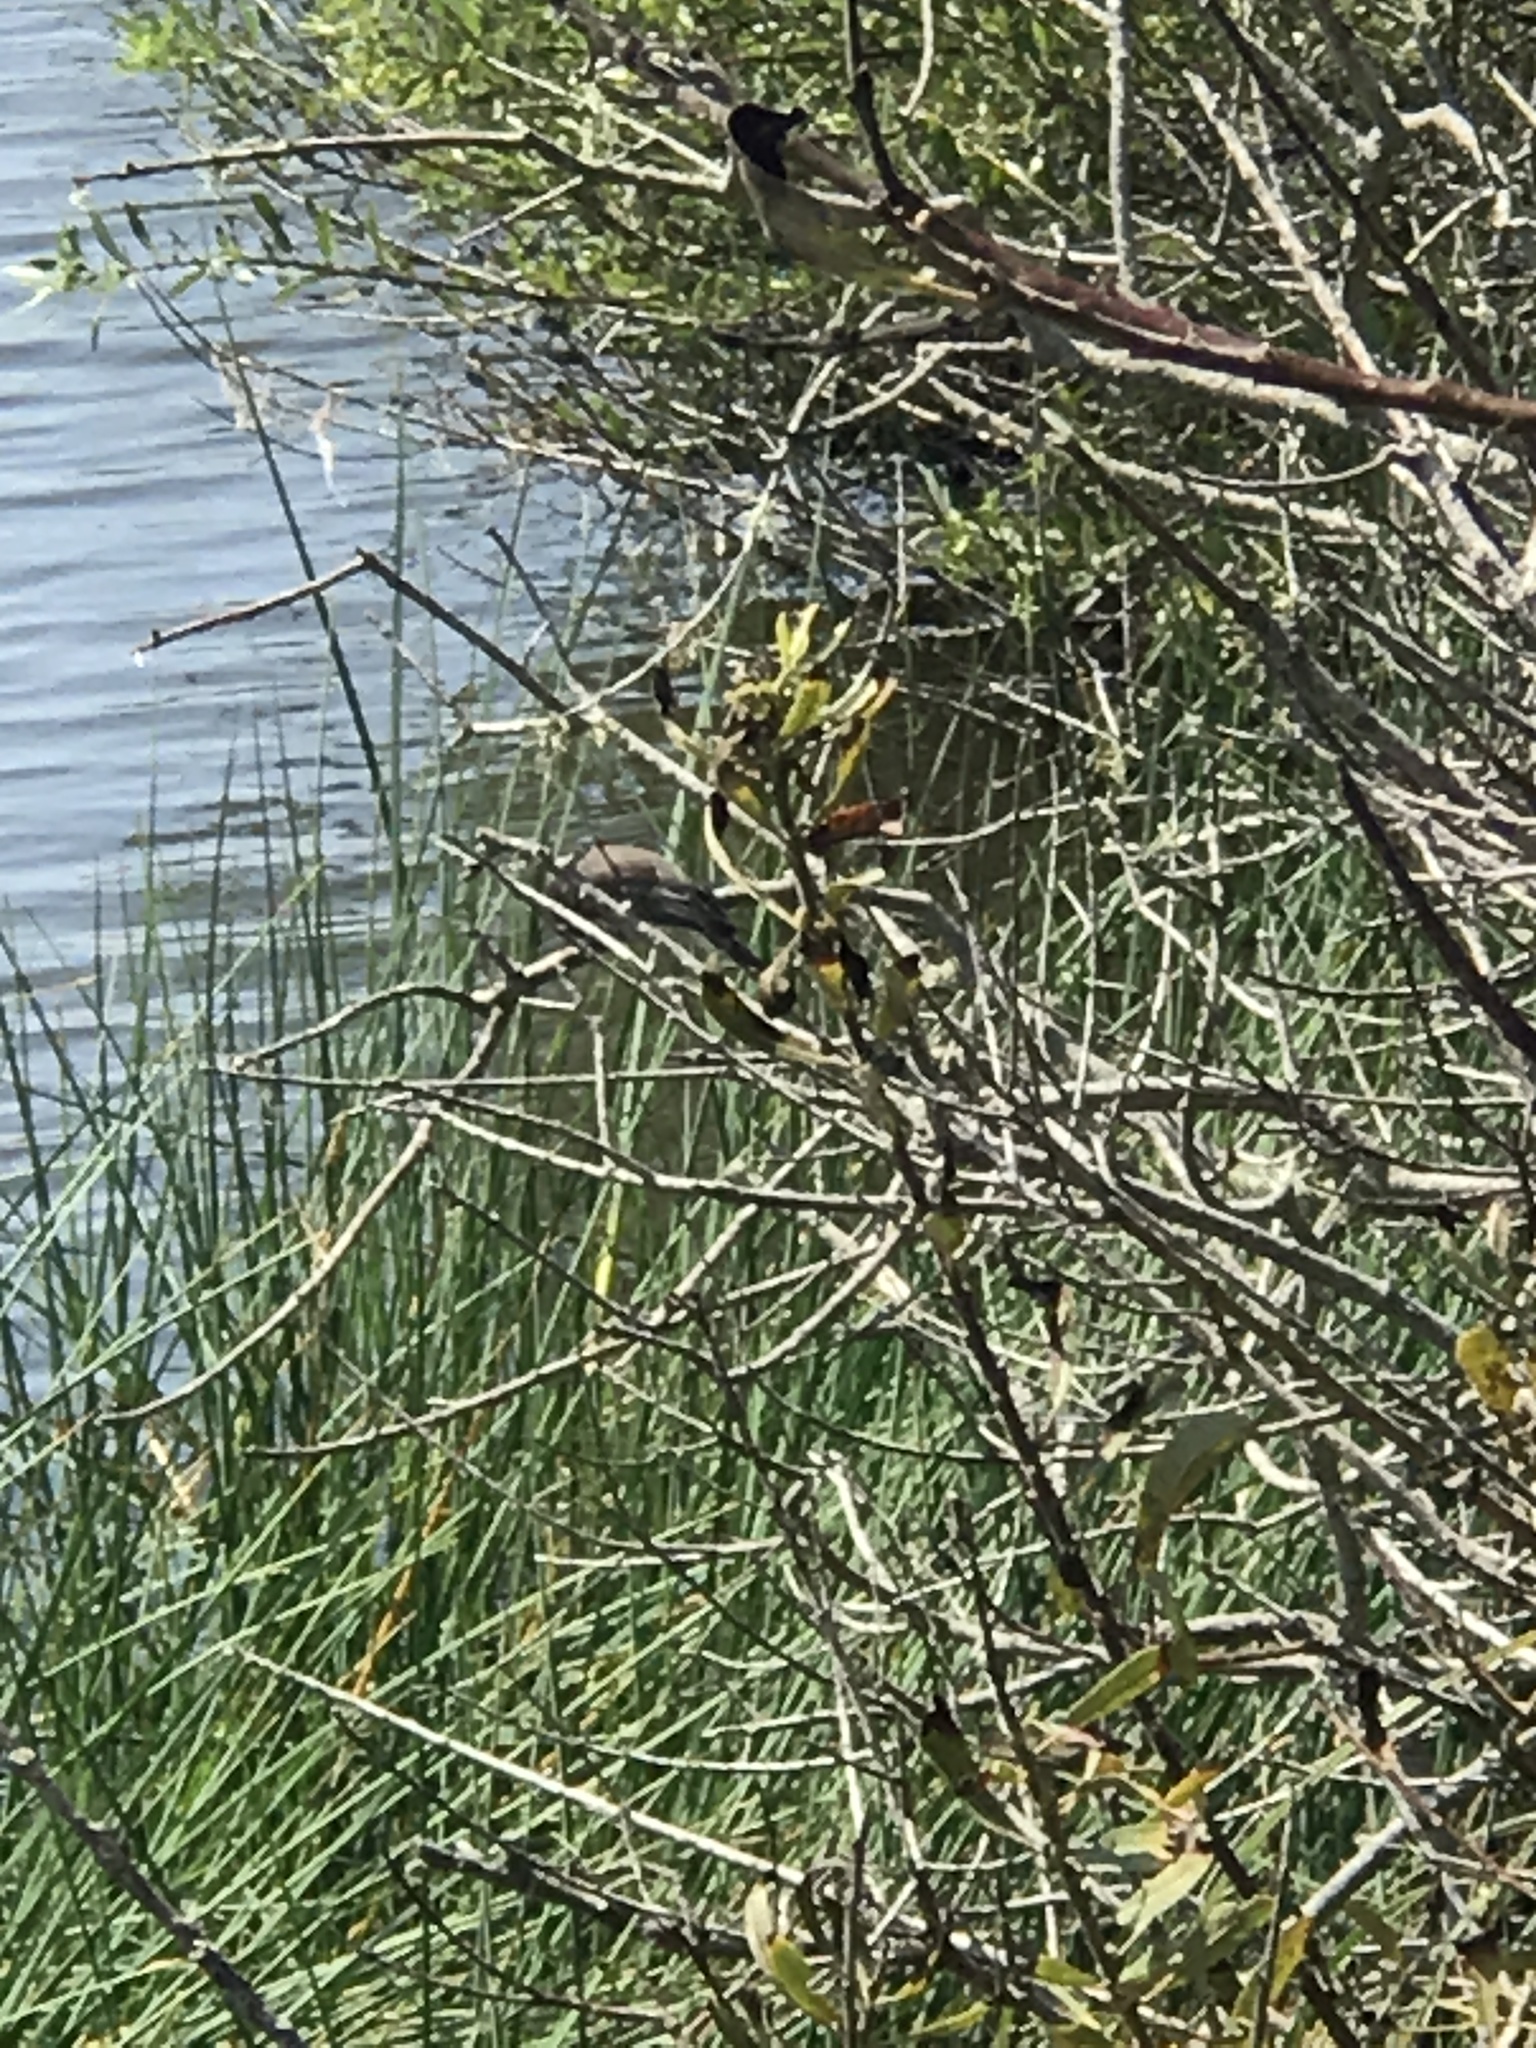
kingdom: Animalia
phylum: Chordata
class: Aves
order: Passeriformes
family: Tyrannidae
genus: Sayornis
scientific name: Sayornis nigricans
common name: Black phoebe
